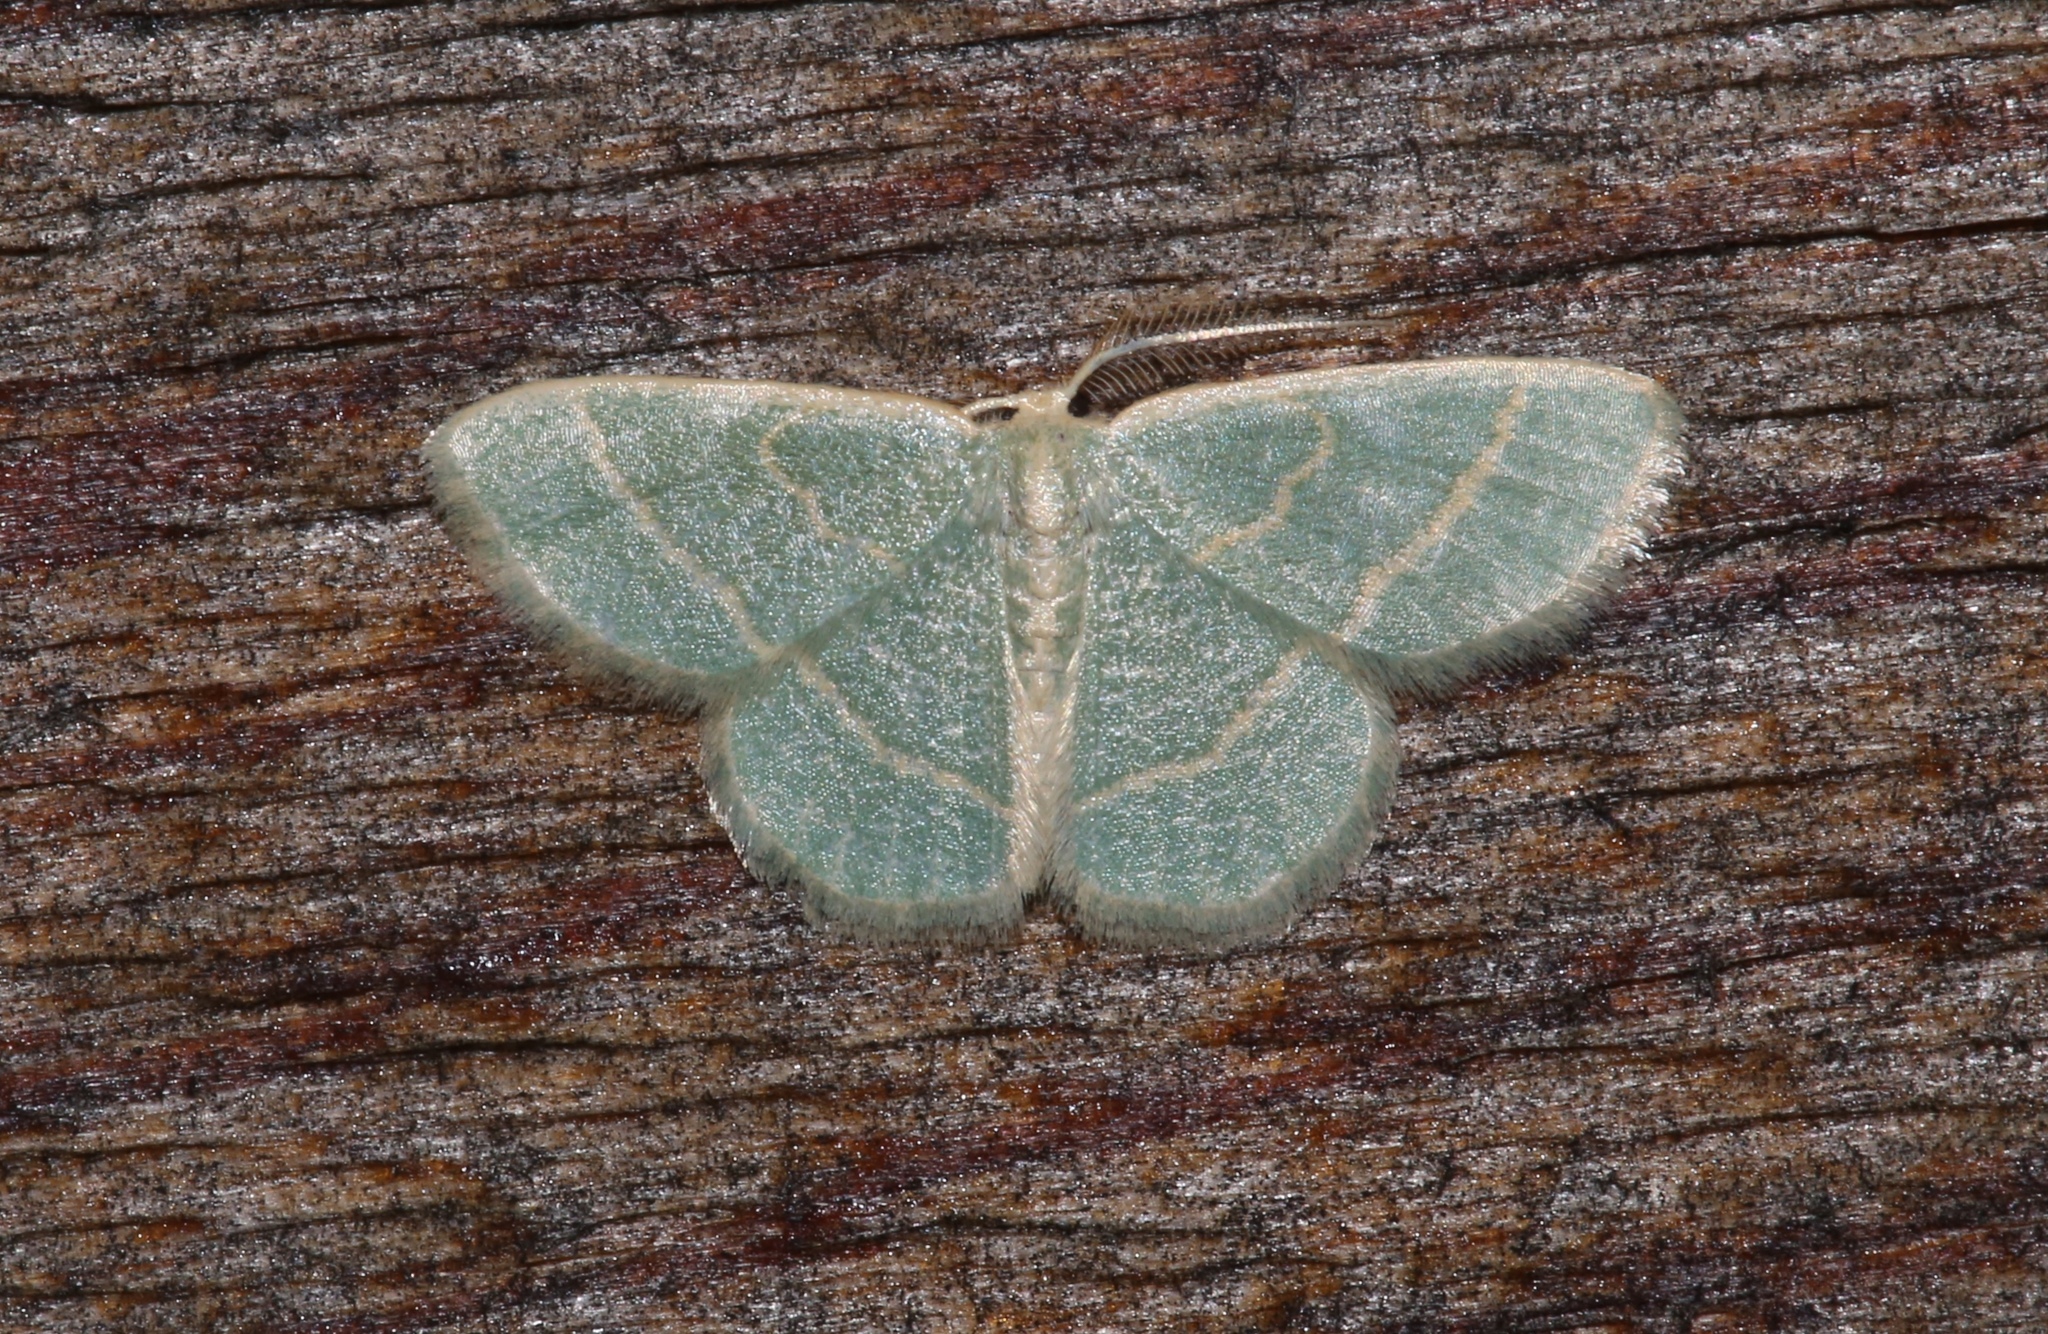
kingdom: Animalia
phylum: Arthropoda
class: Insecta
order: Lepidoptera
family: Geometridae
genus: Chlorochlamys
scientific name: Chlorochlamys chloroleucaria
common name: Blackberry looper
